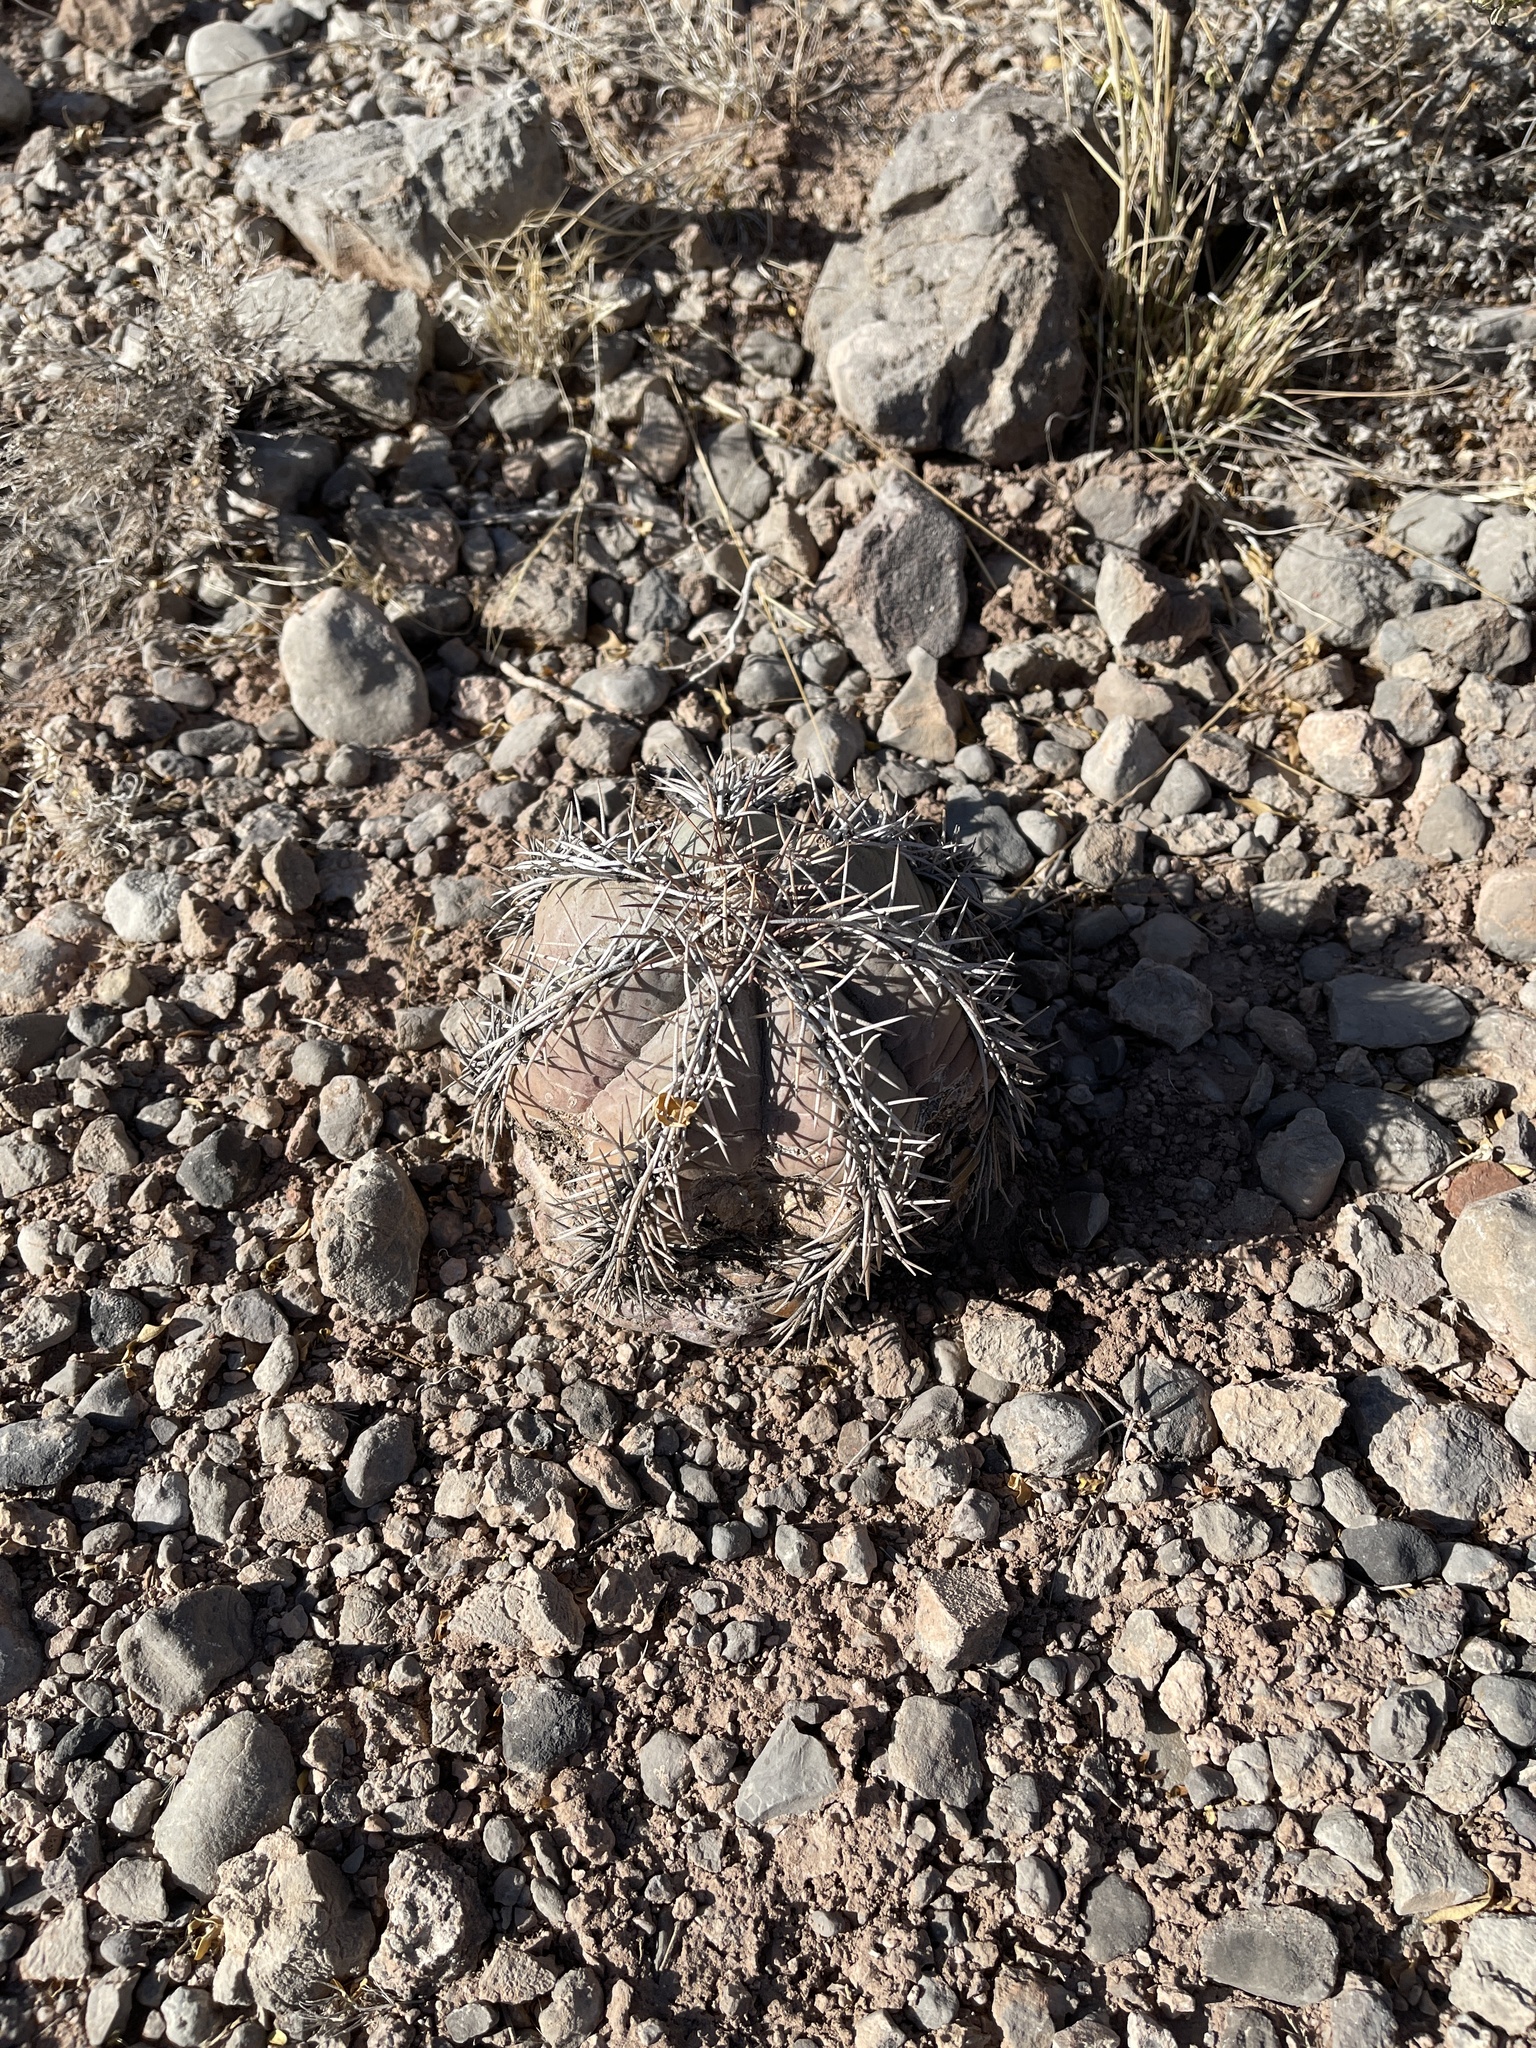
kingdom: Plantae
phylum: Tracheophyta
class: Magnoliopsida
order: Caryophyllales
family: Cactaceae
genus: Echinocactus
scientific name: Echinocactus horizonthalonius
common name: Devilshead
